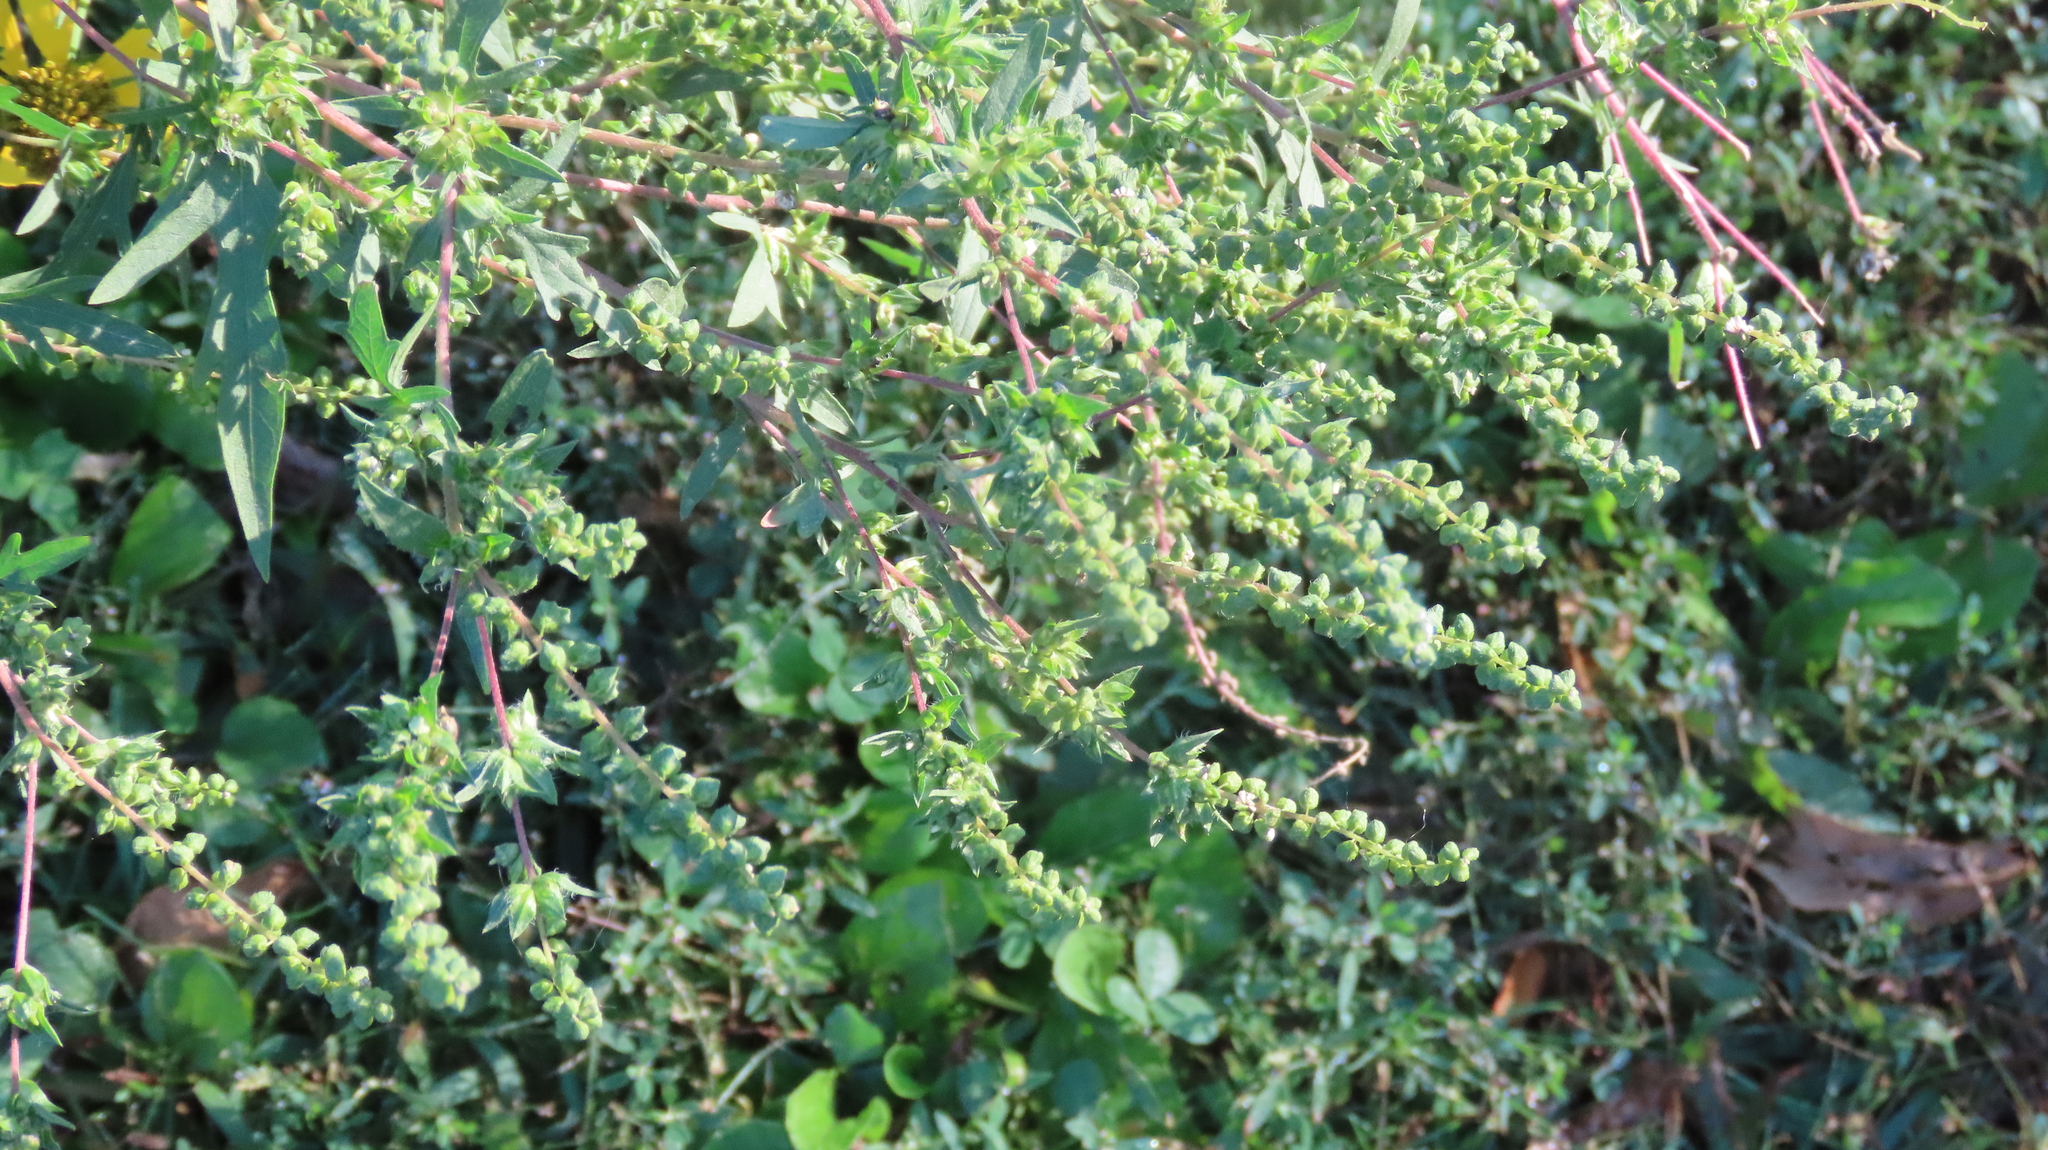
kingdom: Plantae
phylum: Tracheophyta
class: Magnoliopsida
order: Asterales
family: Asteraceae
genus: Ambrosia
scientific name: Ambrosia artemisiifolia
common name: Annual ragweed
